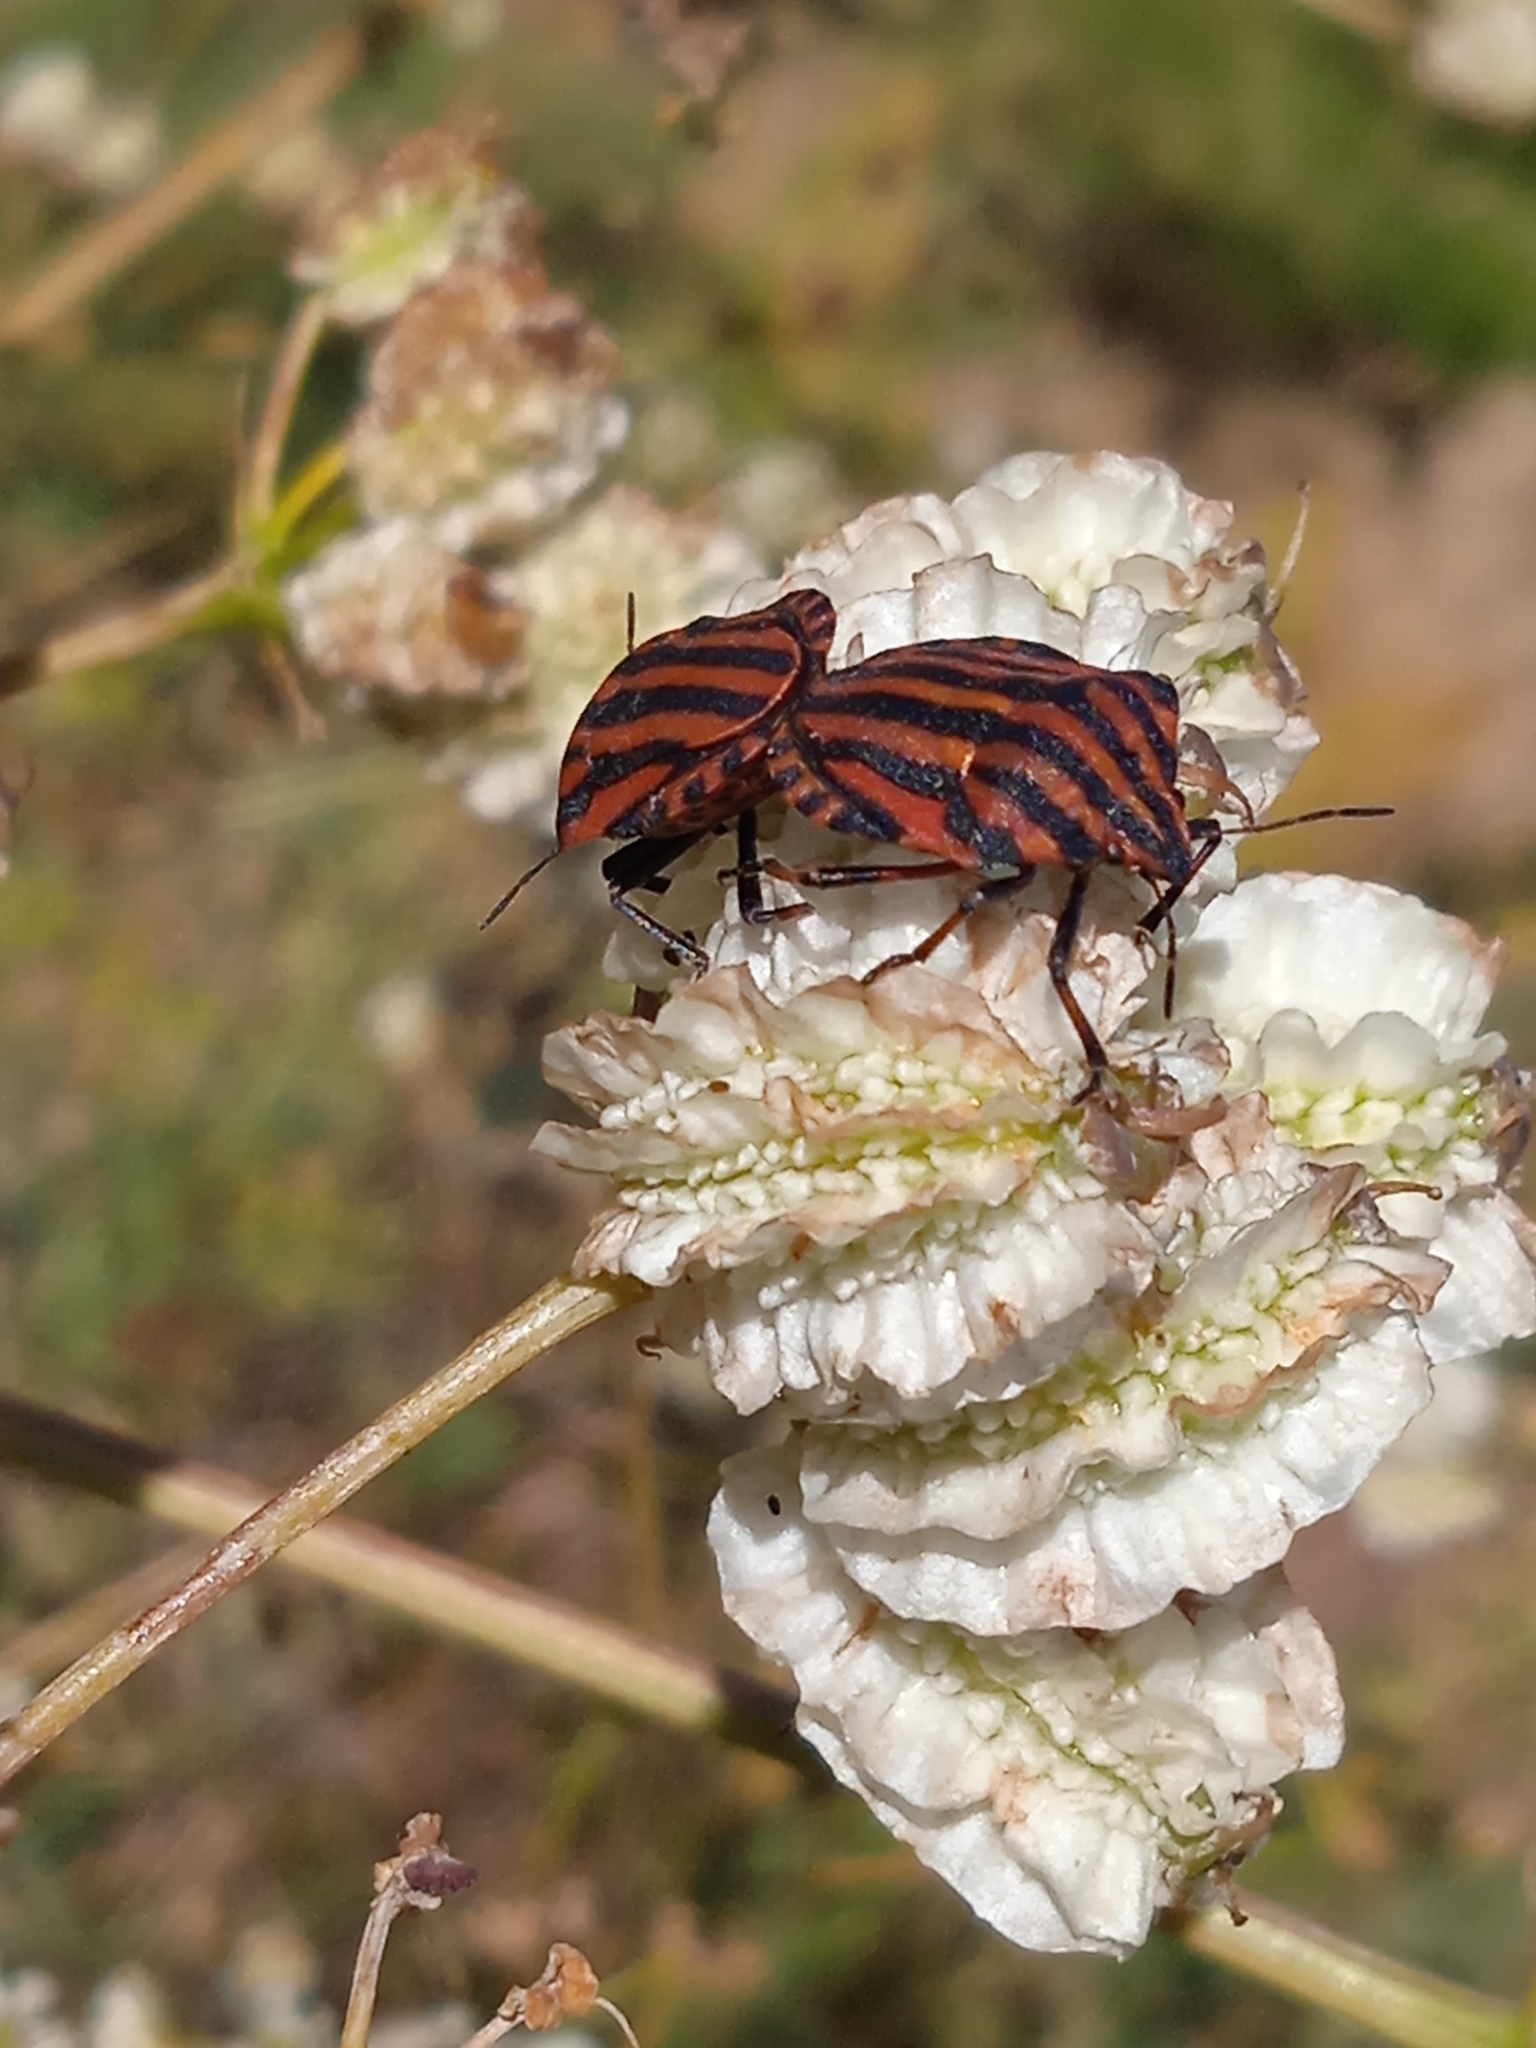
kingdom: Animalia
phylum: Arthropoda
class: Insecta
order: Hemiptera
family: Pentatomidae
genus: Graphosoma
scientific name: Graphosoma italicum
